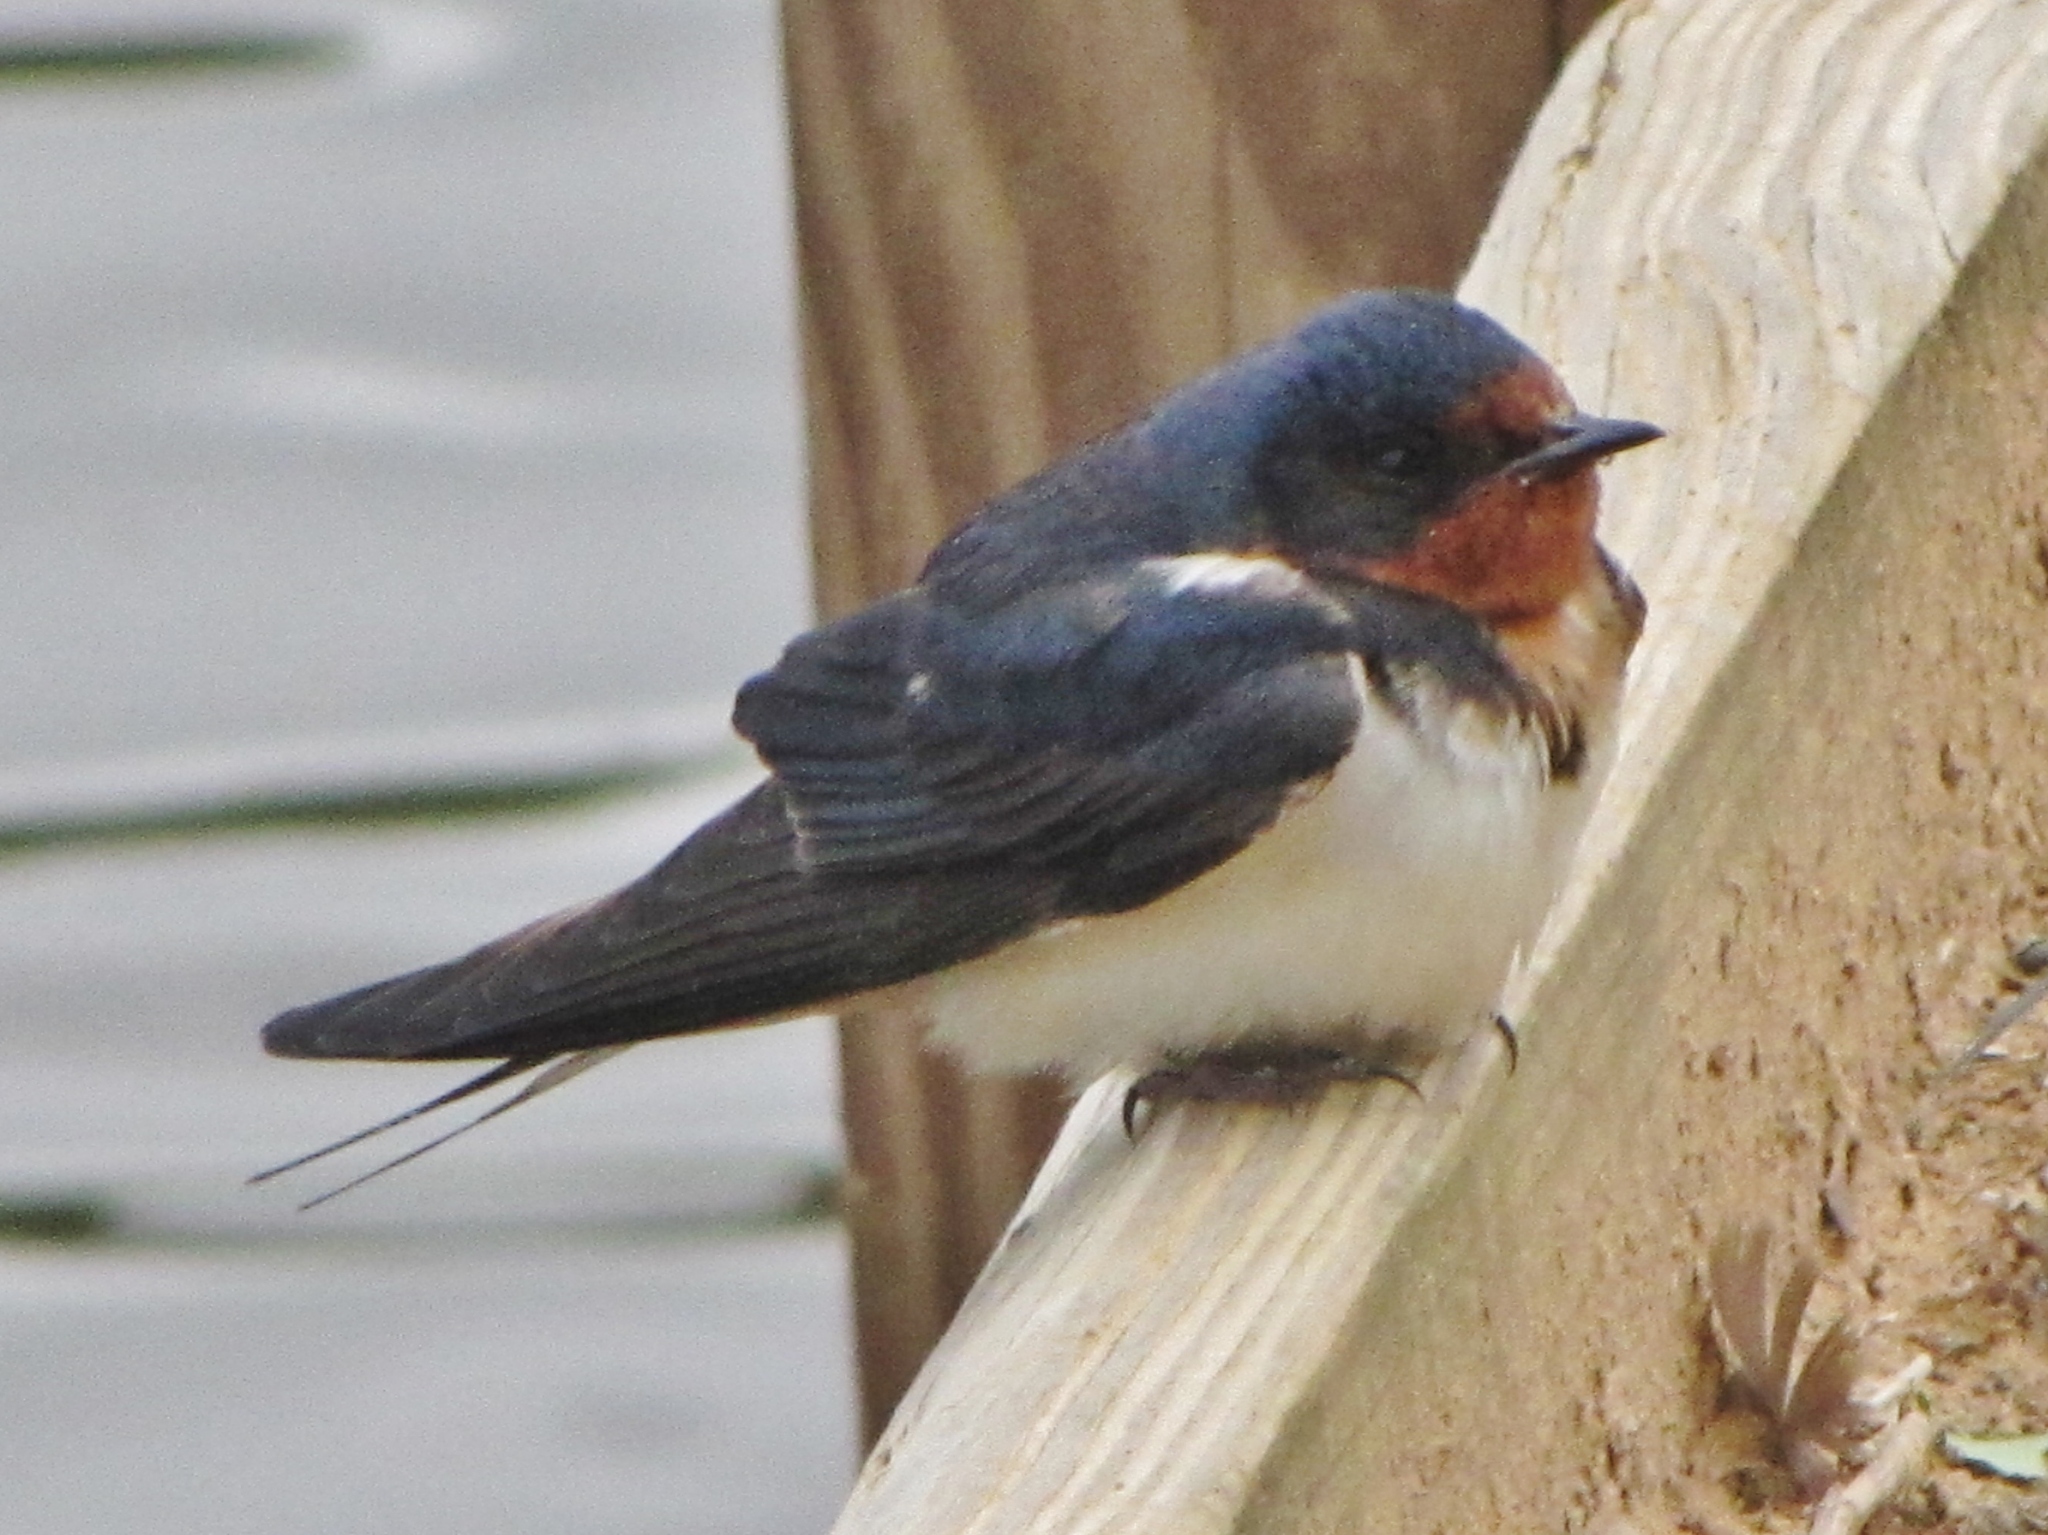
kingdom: Animalia
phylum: Chordata
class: Aves
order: Passeriformes
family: Hirundinidae
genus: Hirundo
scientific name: Hirundo rustica
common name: Barn swallow
